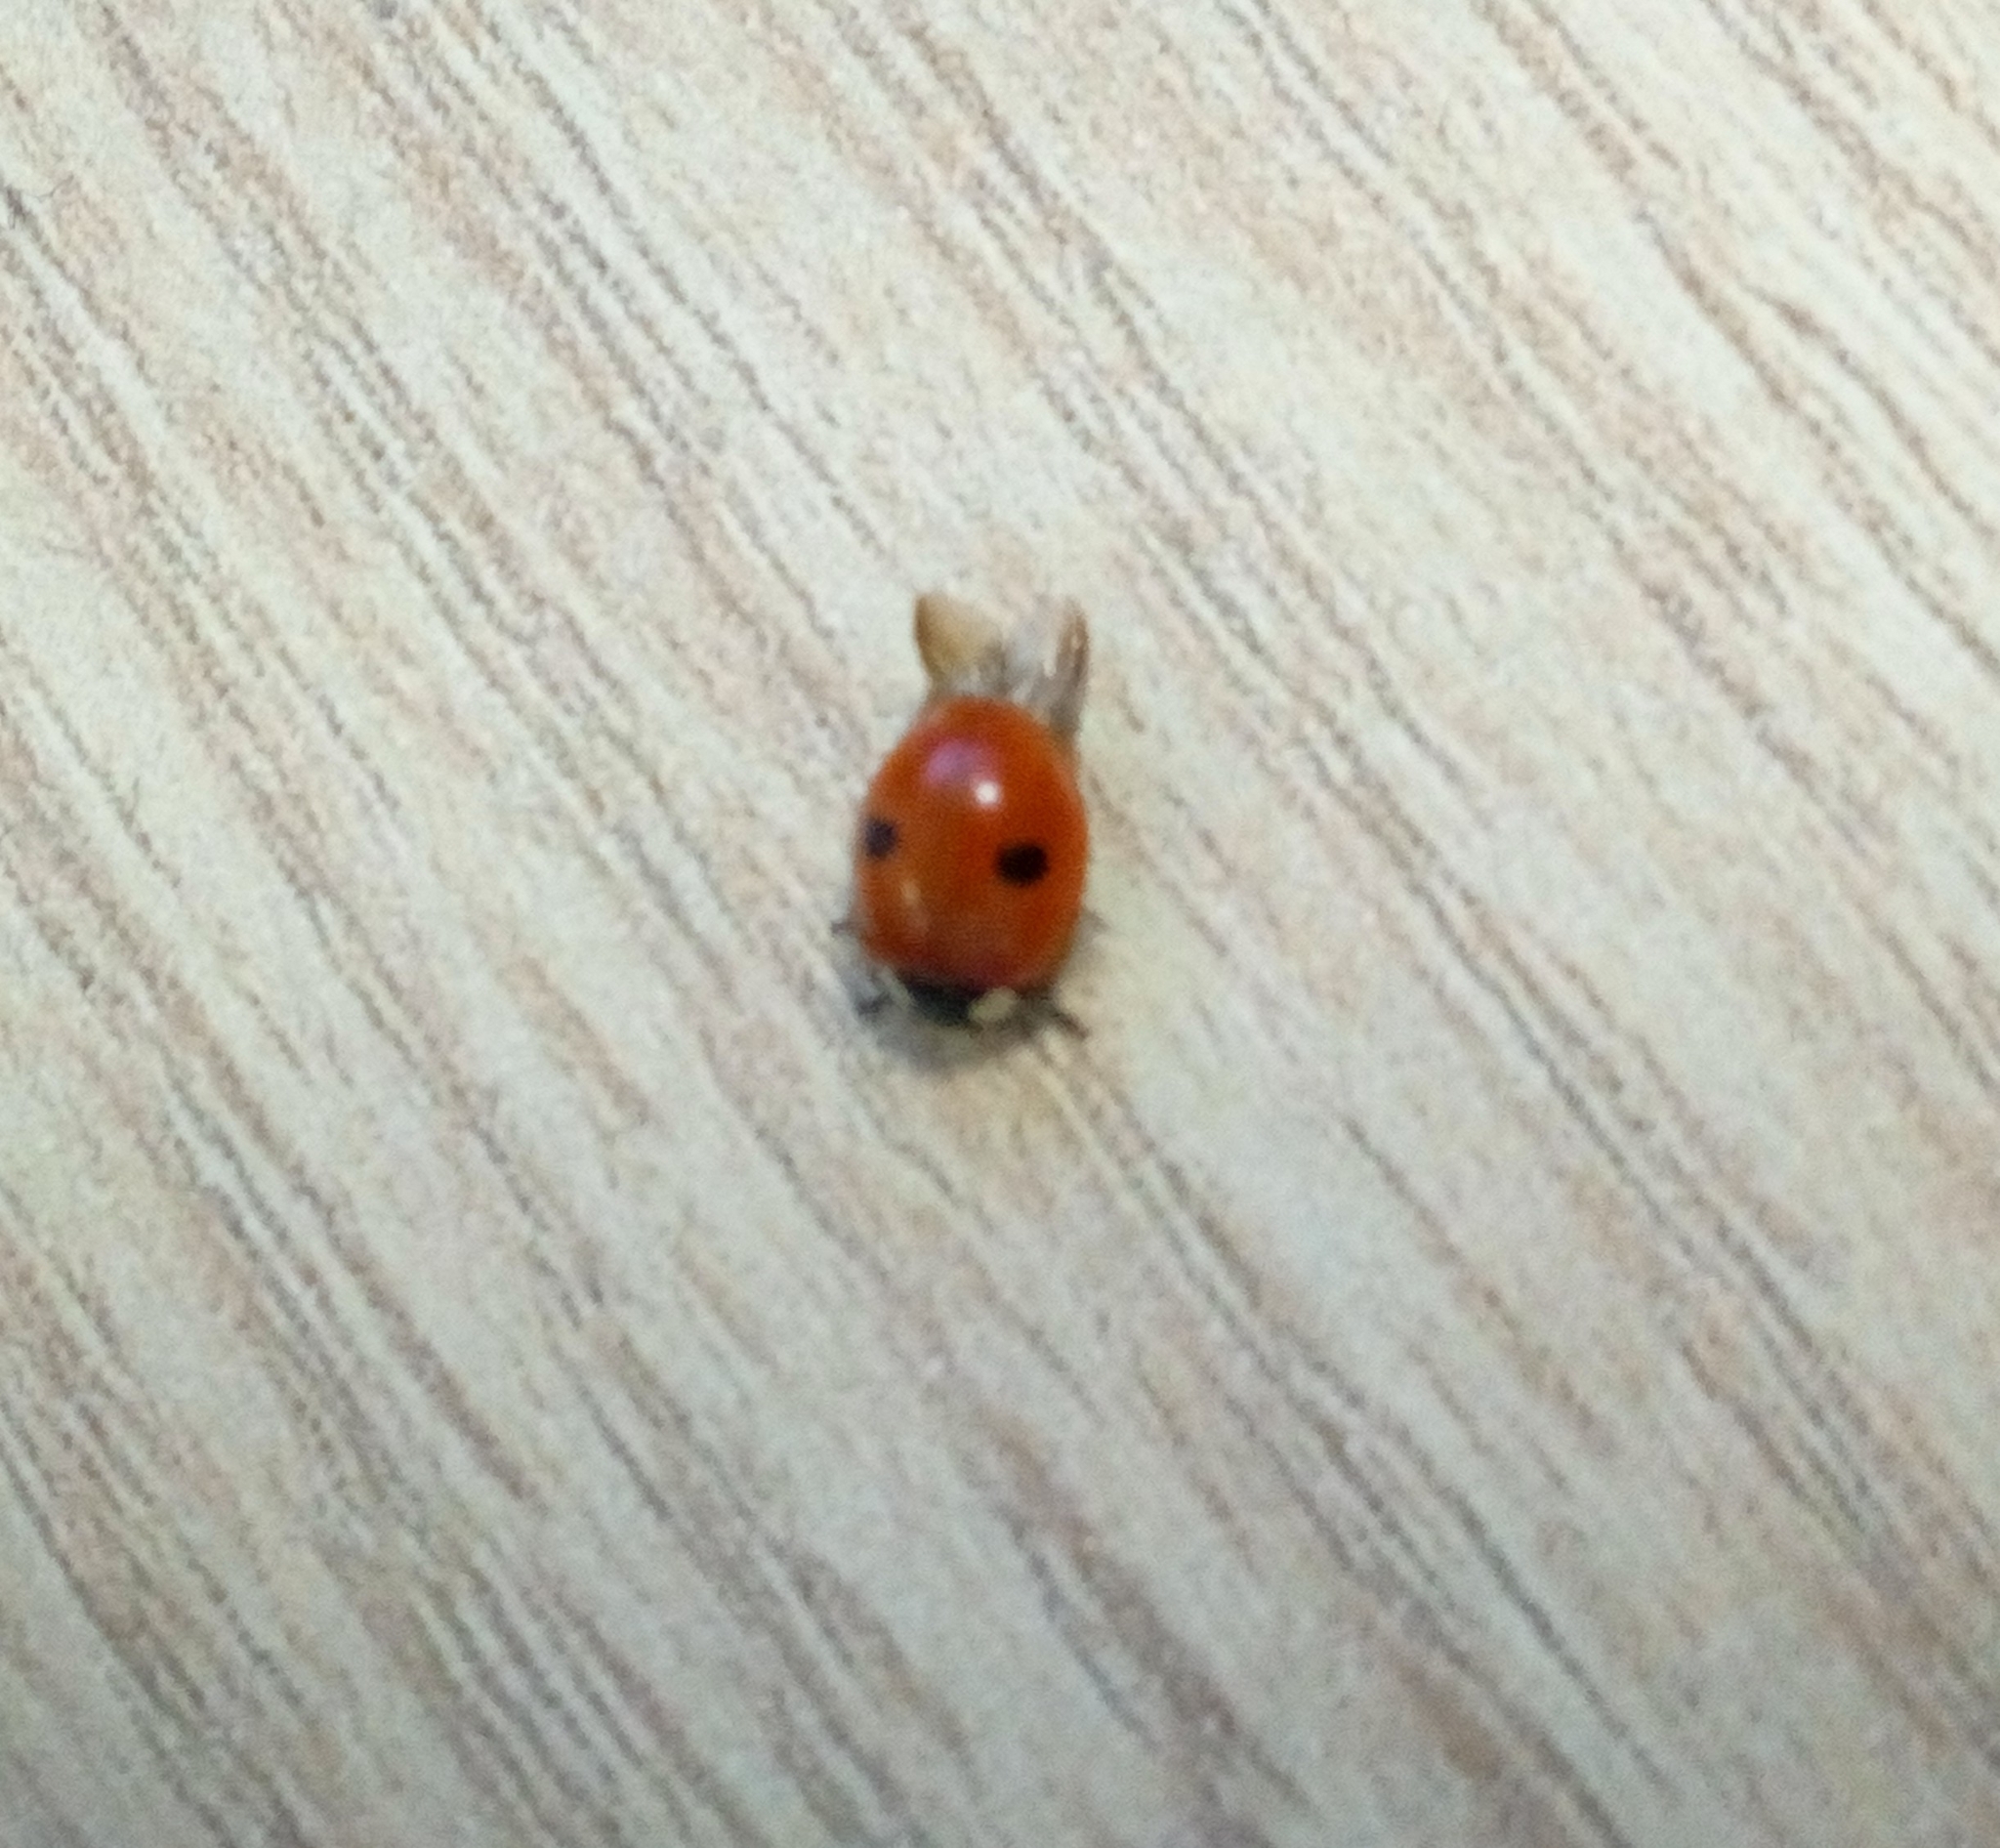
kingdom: Animalia
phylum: Arthropoda
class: Insecta
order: Coleoptera
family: Coccinellidae
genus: Adalia
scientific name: Adalia bipunctata
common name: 2-spot ladybird
